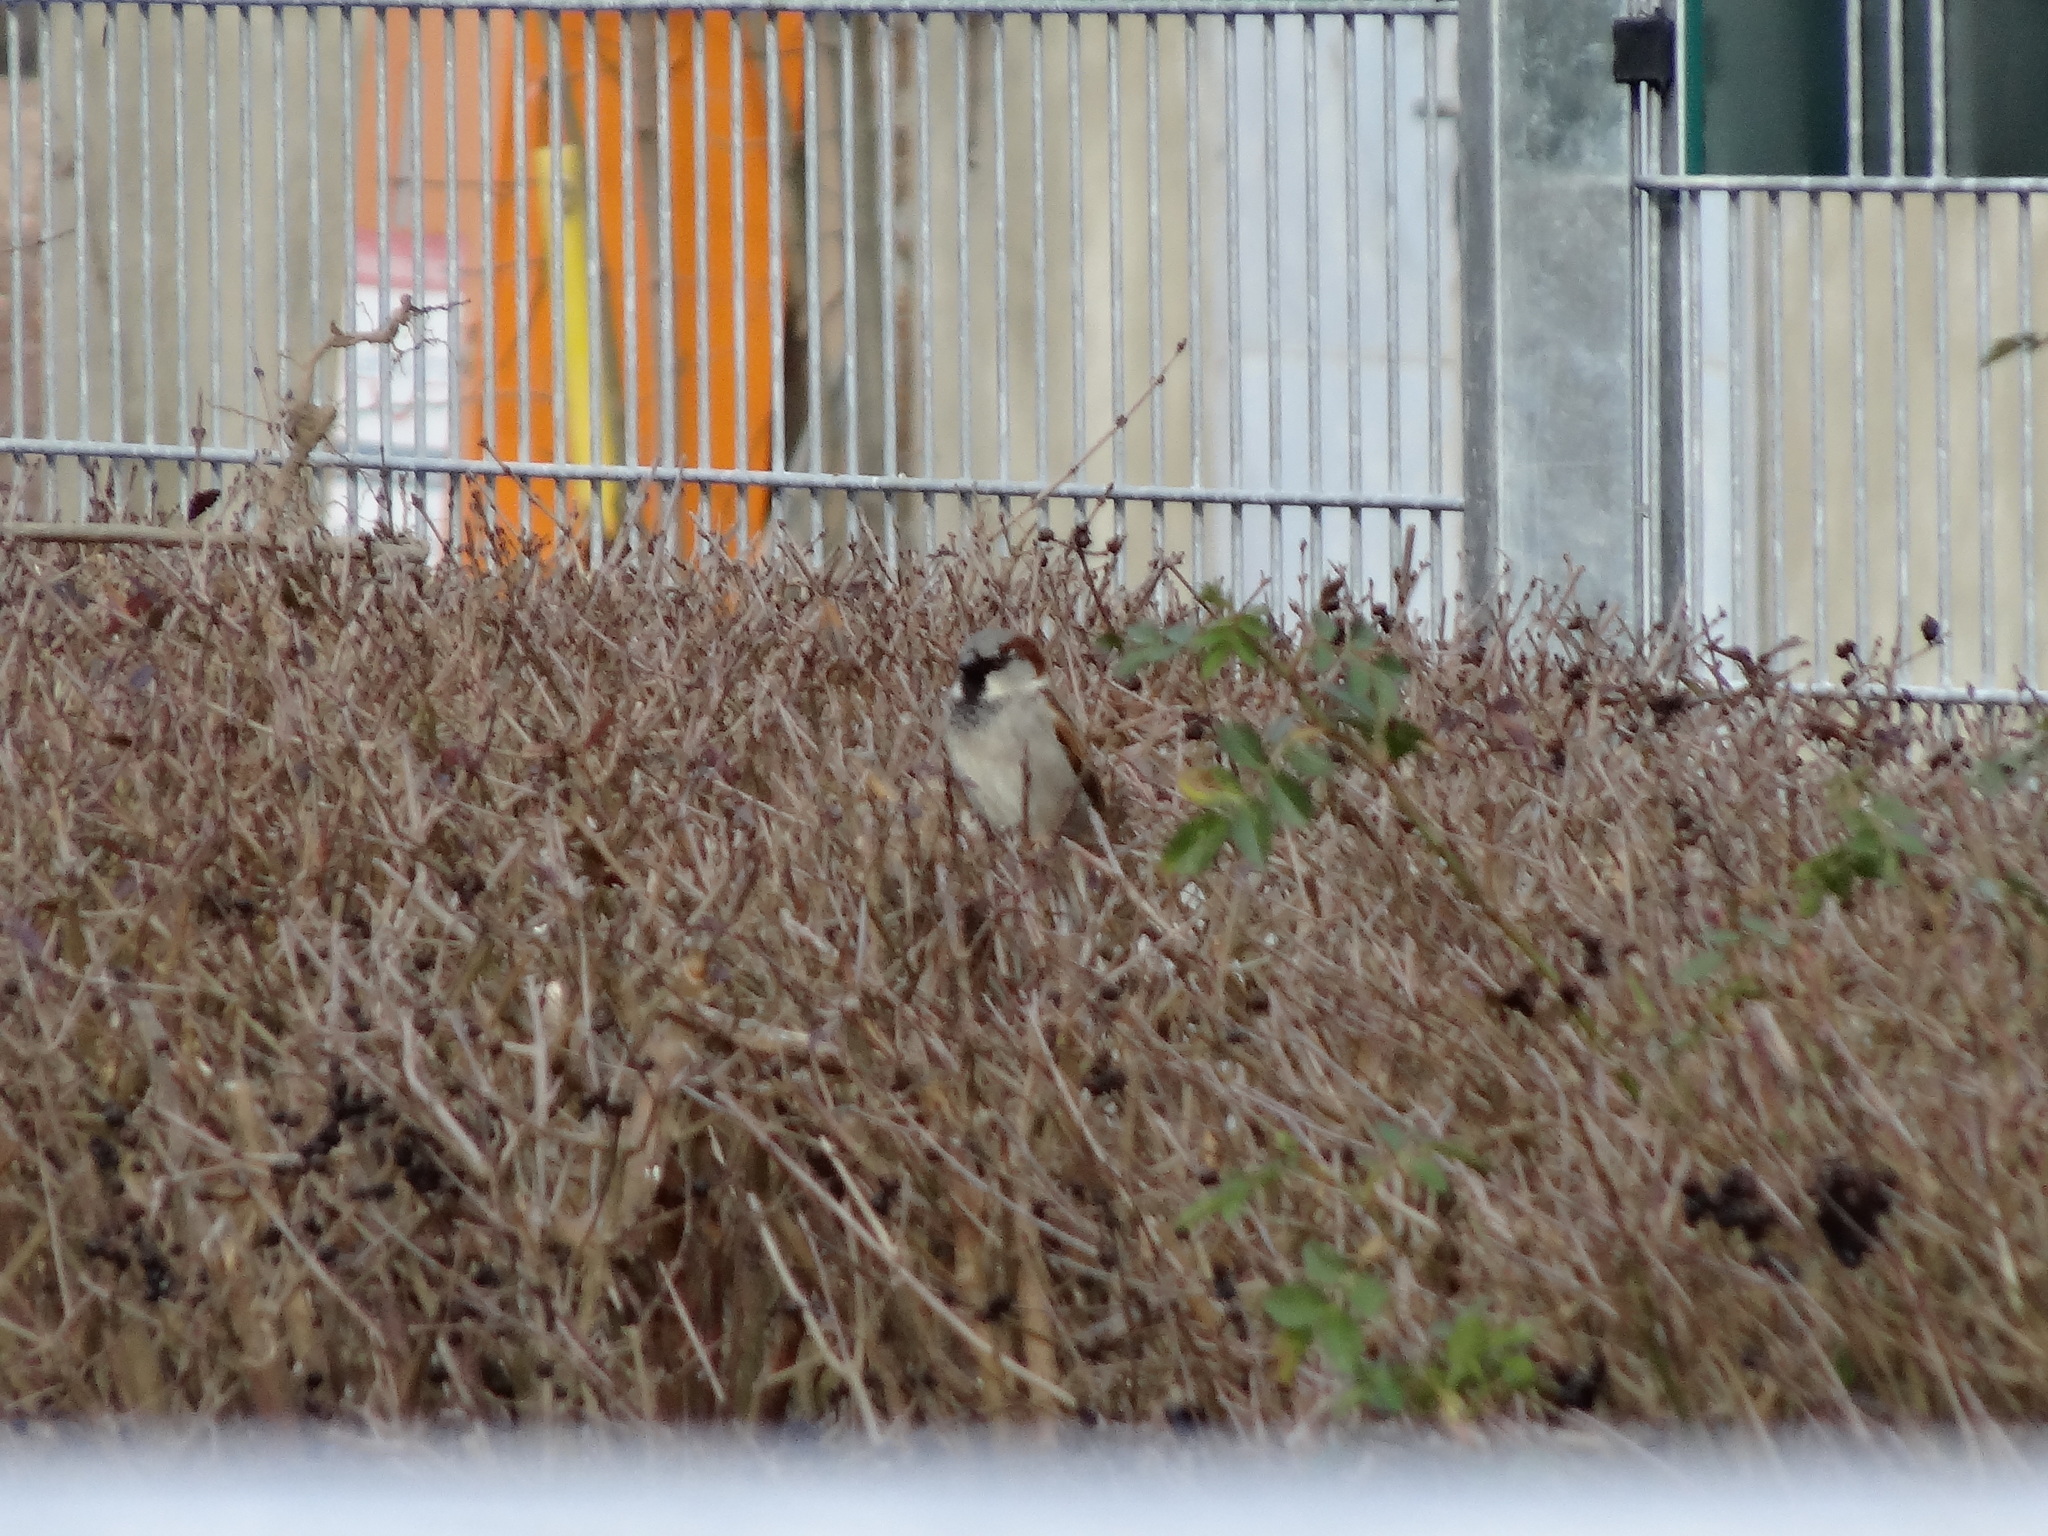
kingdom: Animalia
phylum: Chordata
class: Aves
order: Passeriformes
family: Passeridae
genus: Passer
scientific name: Passer domesticus
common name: House sparrow
